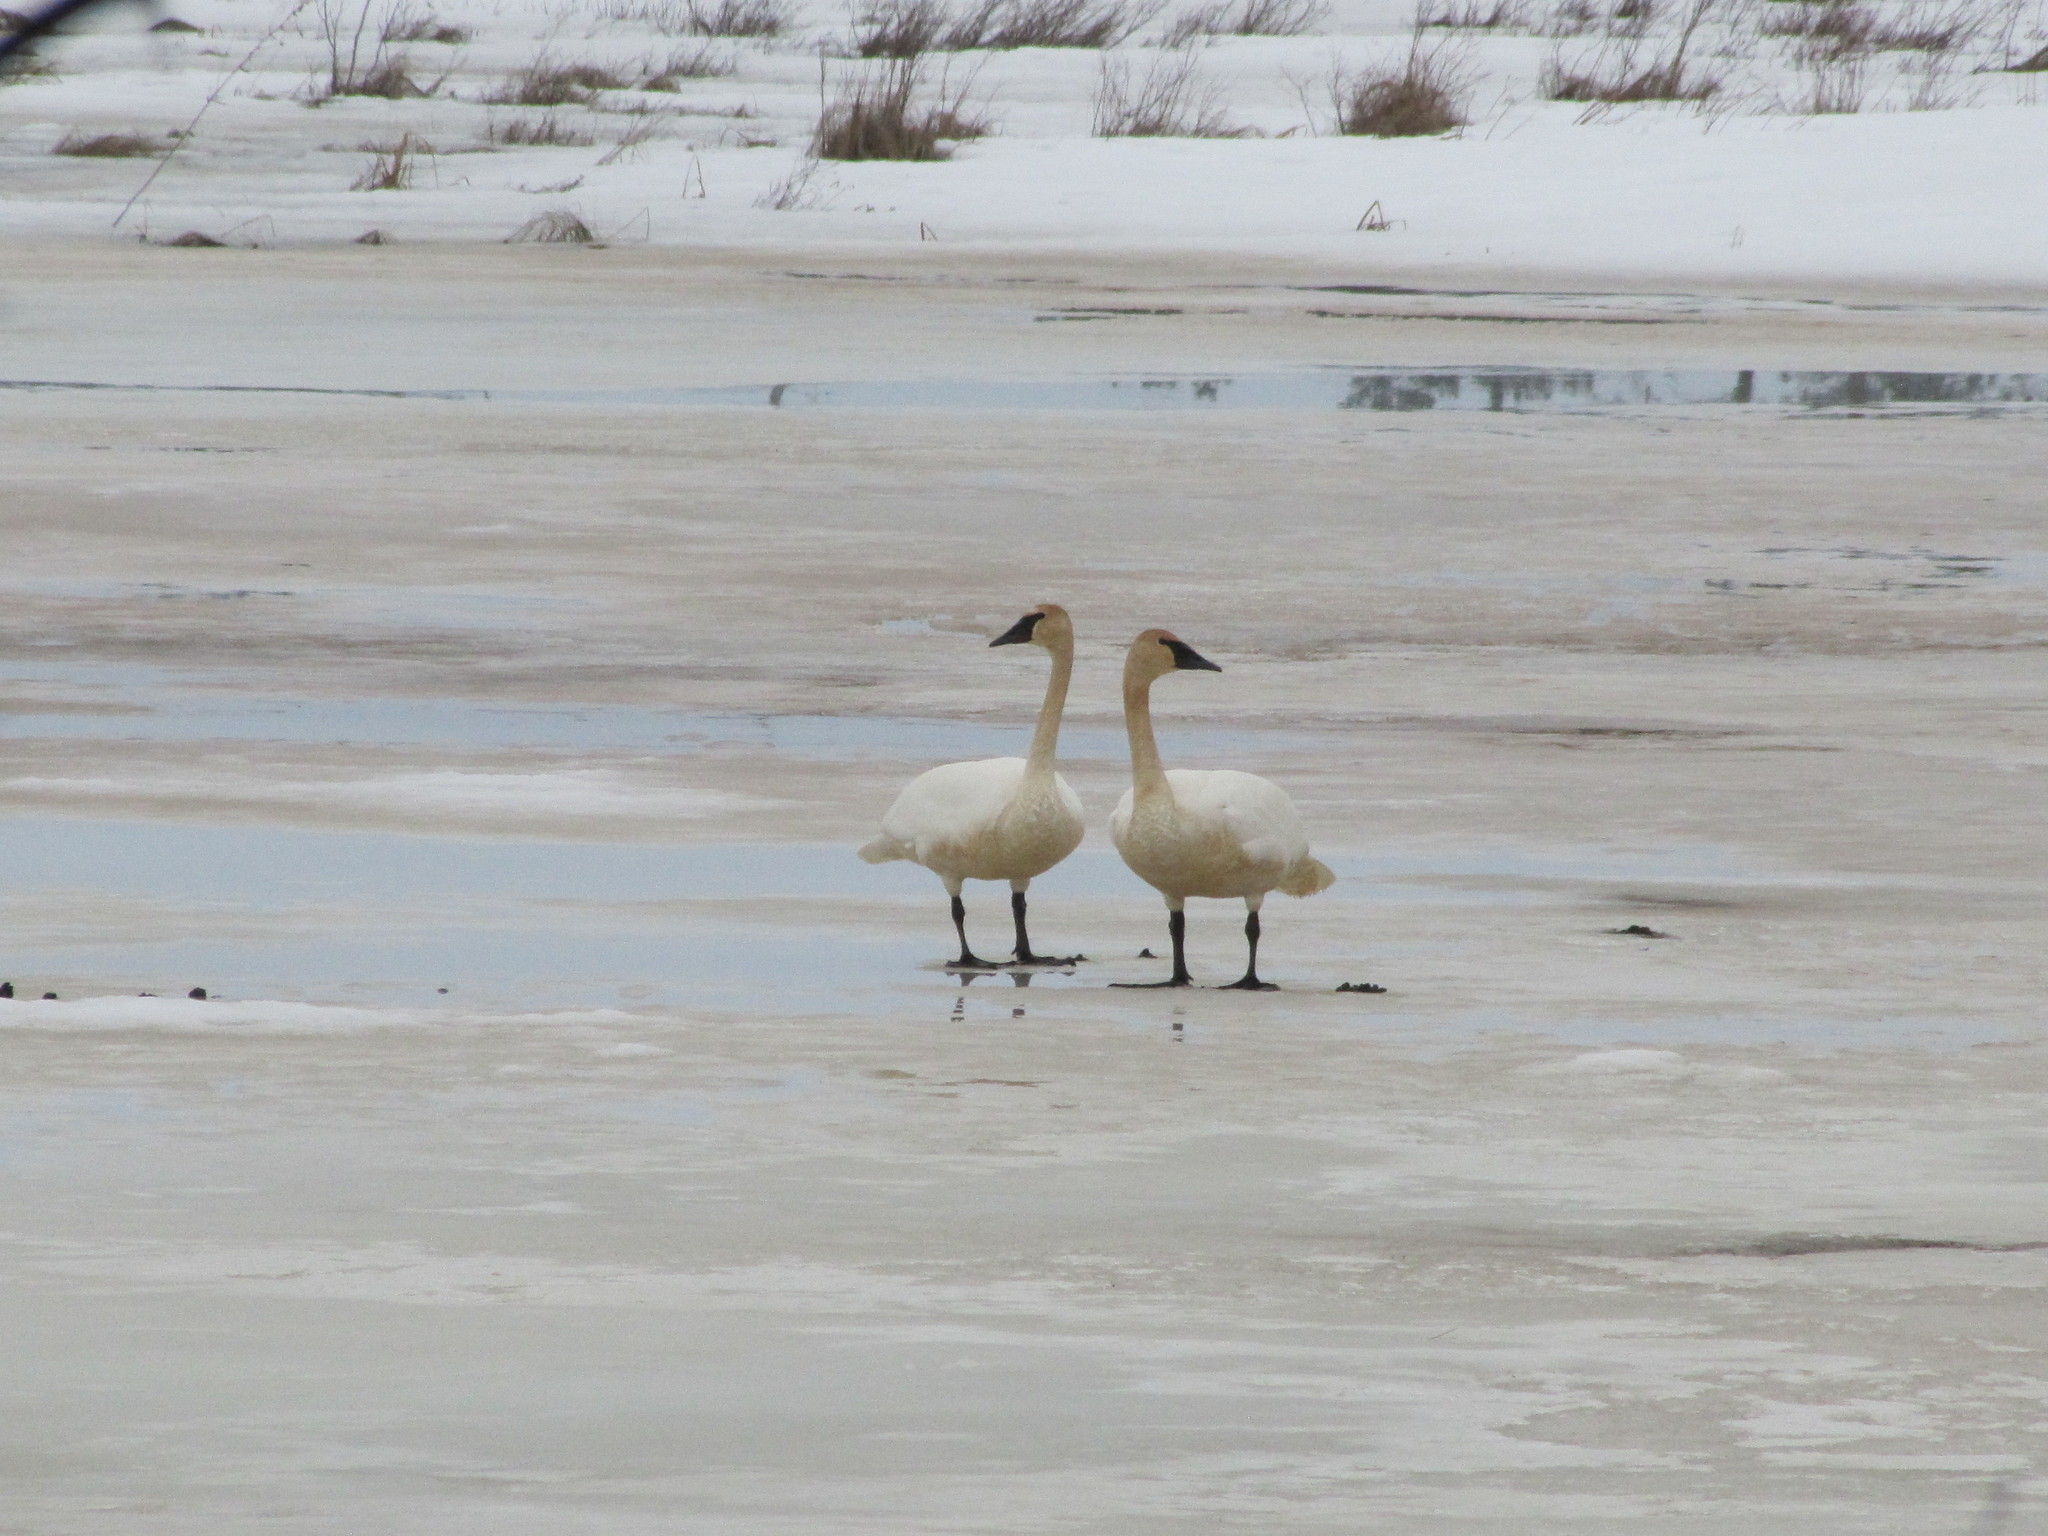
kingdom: Animalia
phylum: Chordata
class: Aves
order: Anseriformes
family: Anatidae
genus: Cygnus
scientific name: Cygnus buccinator
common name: Trumpeter swan
